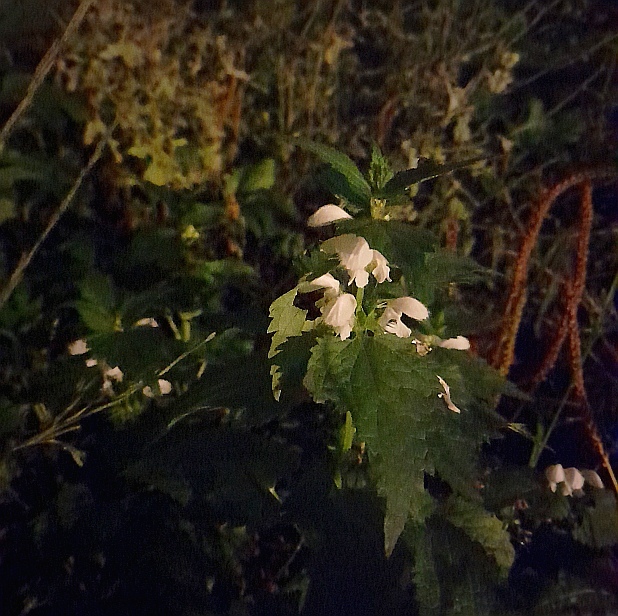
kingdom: Plantae
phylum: Tracheophyta
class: Magnoliopsida
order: Lamiales
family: Lamiaceae
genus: Lamium
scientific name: Lamium album
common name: White dead-nettle
